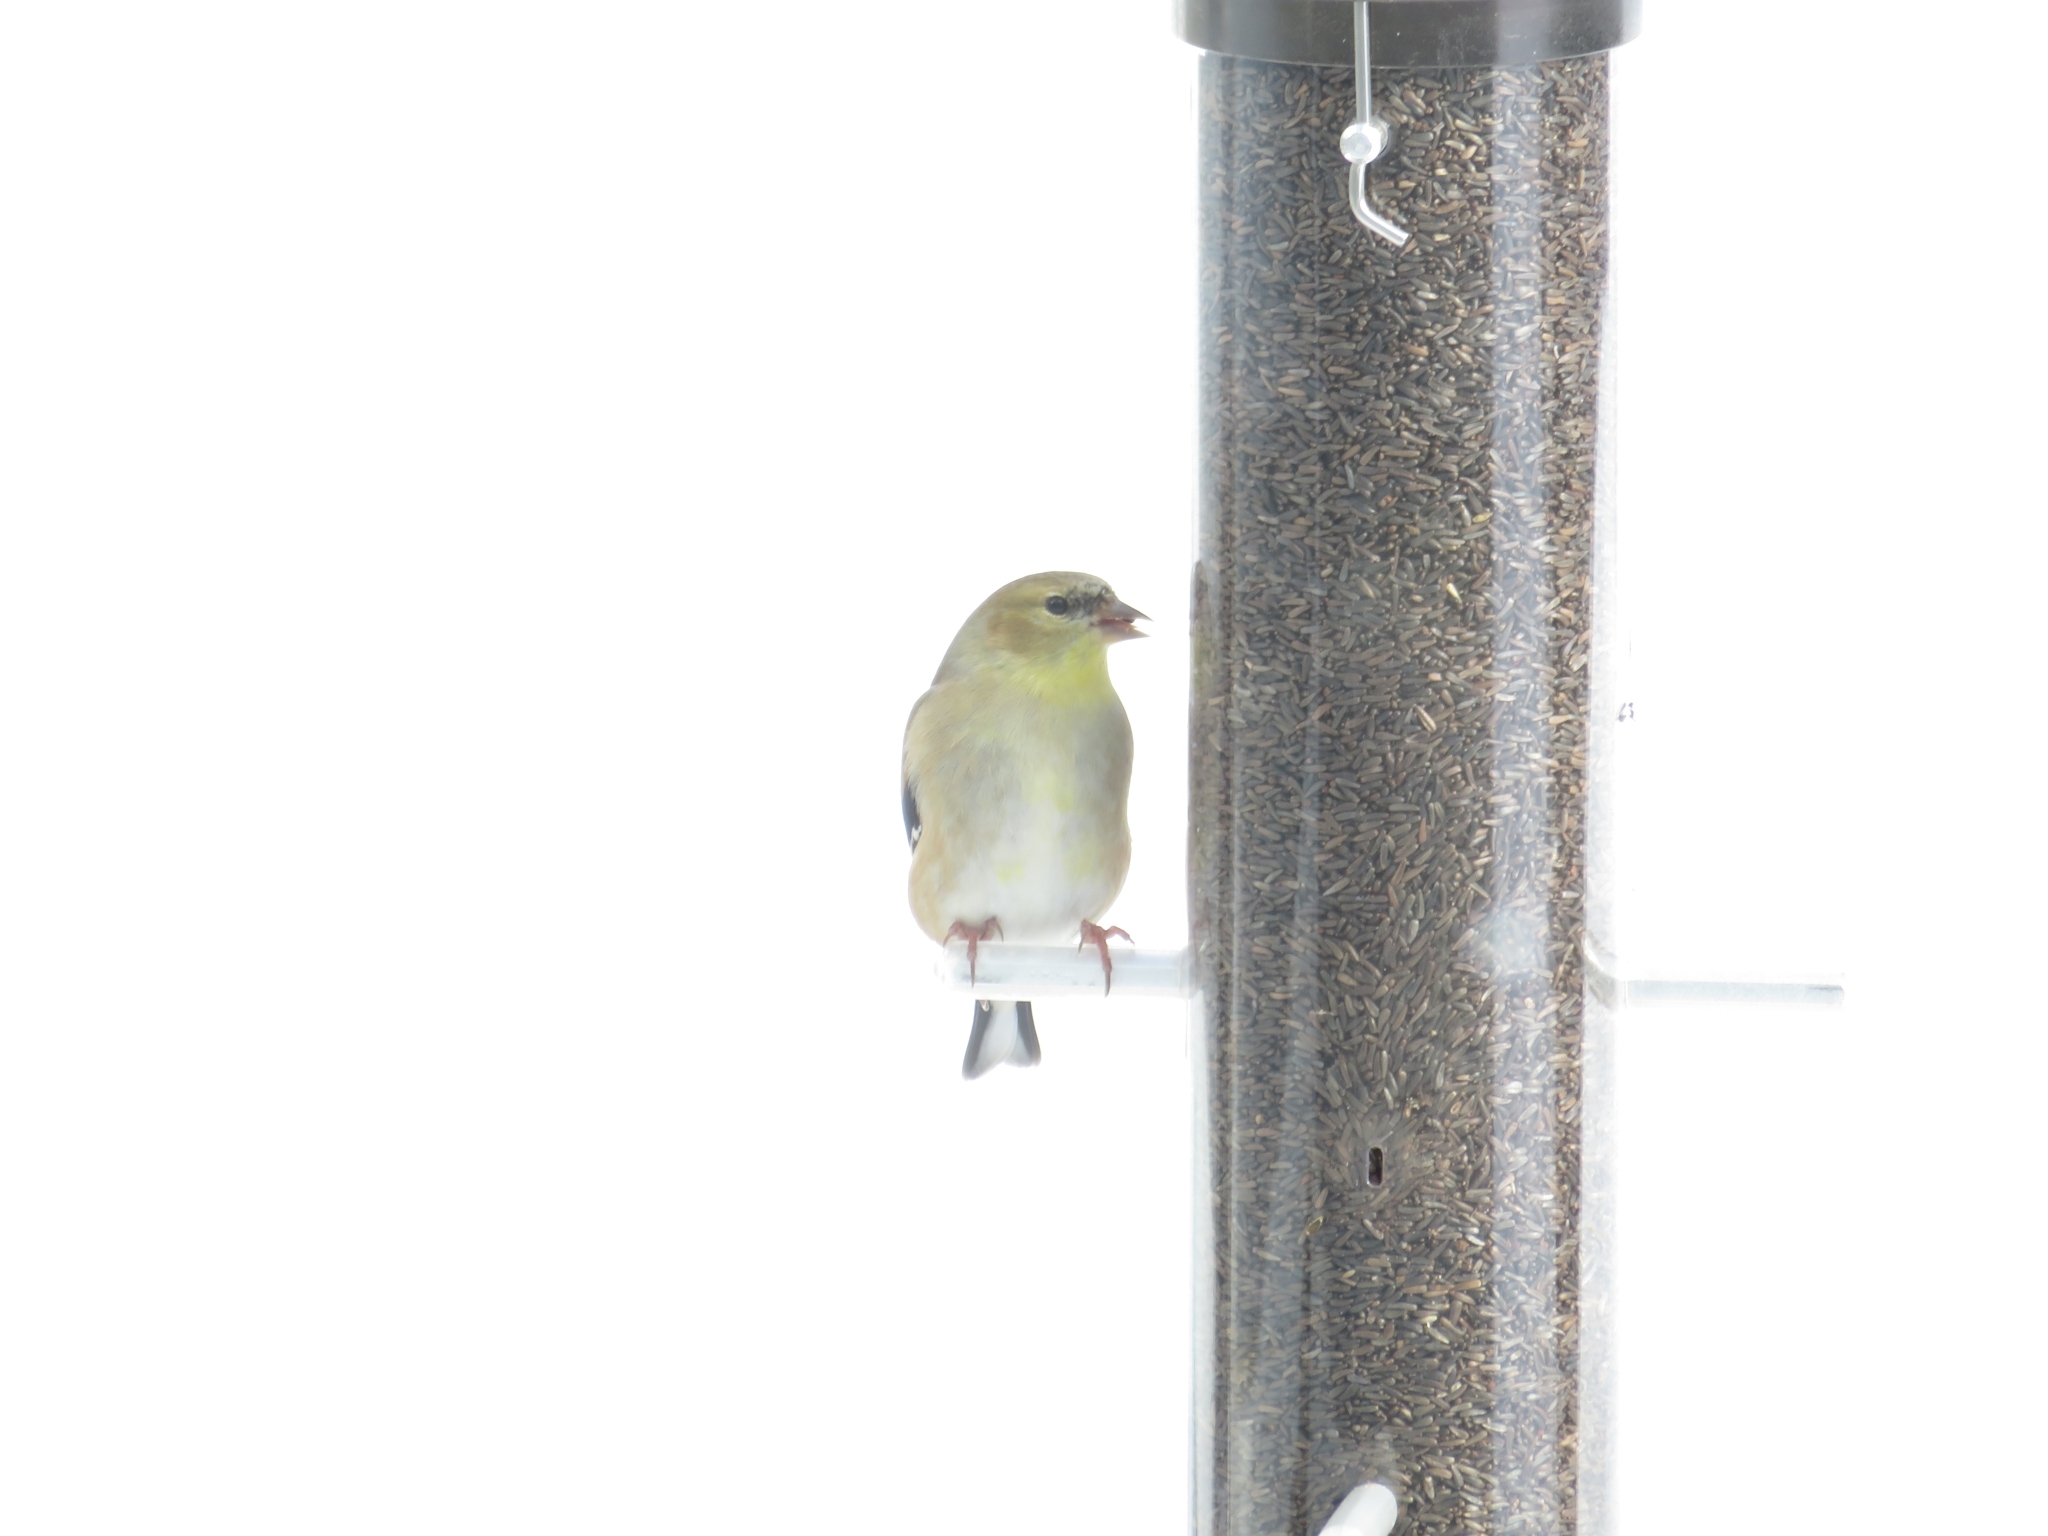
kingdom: Animalia
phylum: Chordata
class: Aves
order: Passeriformes
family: Fringillidae
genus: Spinus
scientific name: Spinus tristis
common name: American goldfinch
